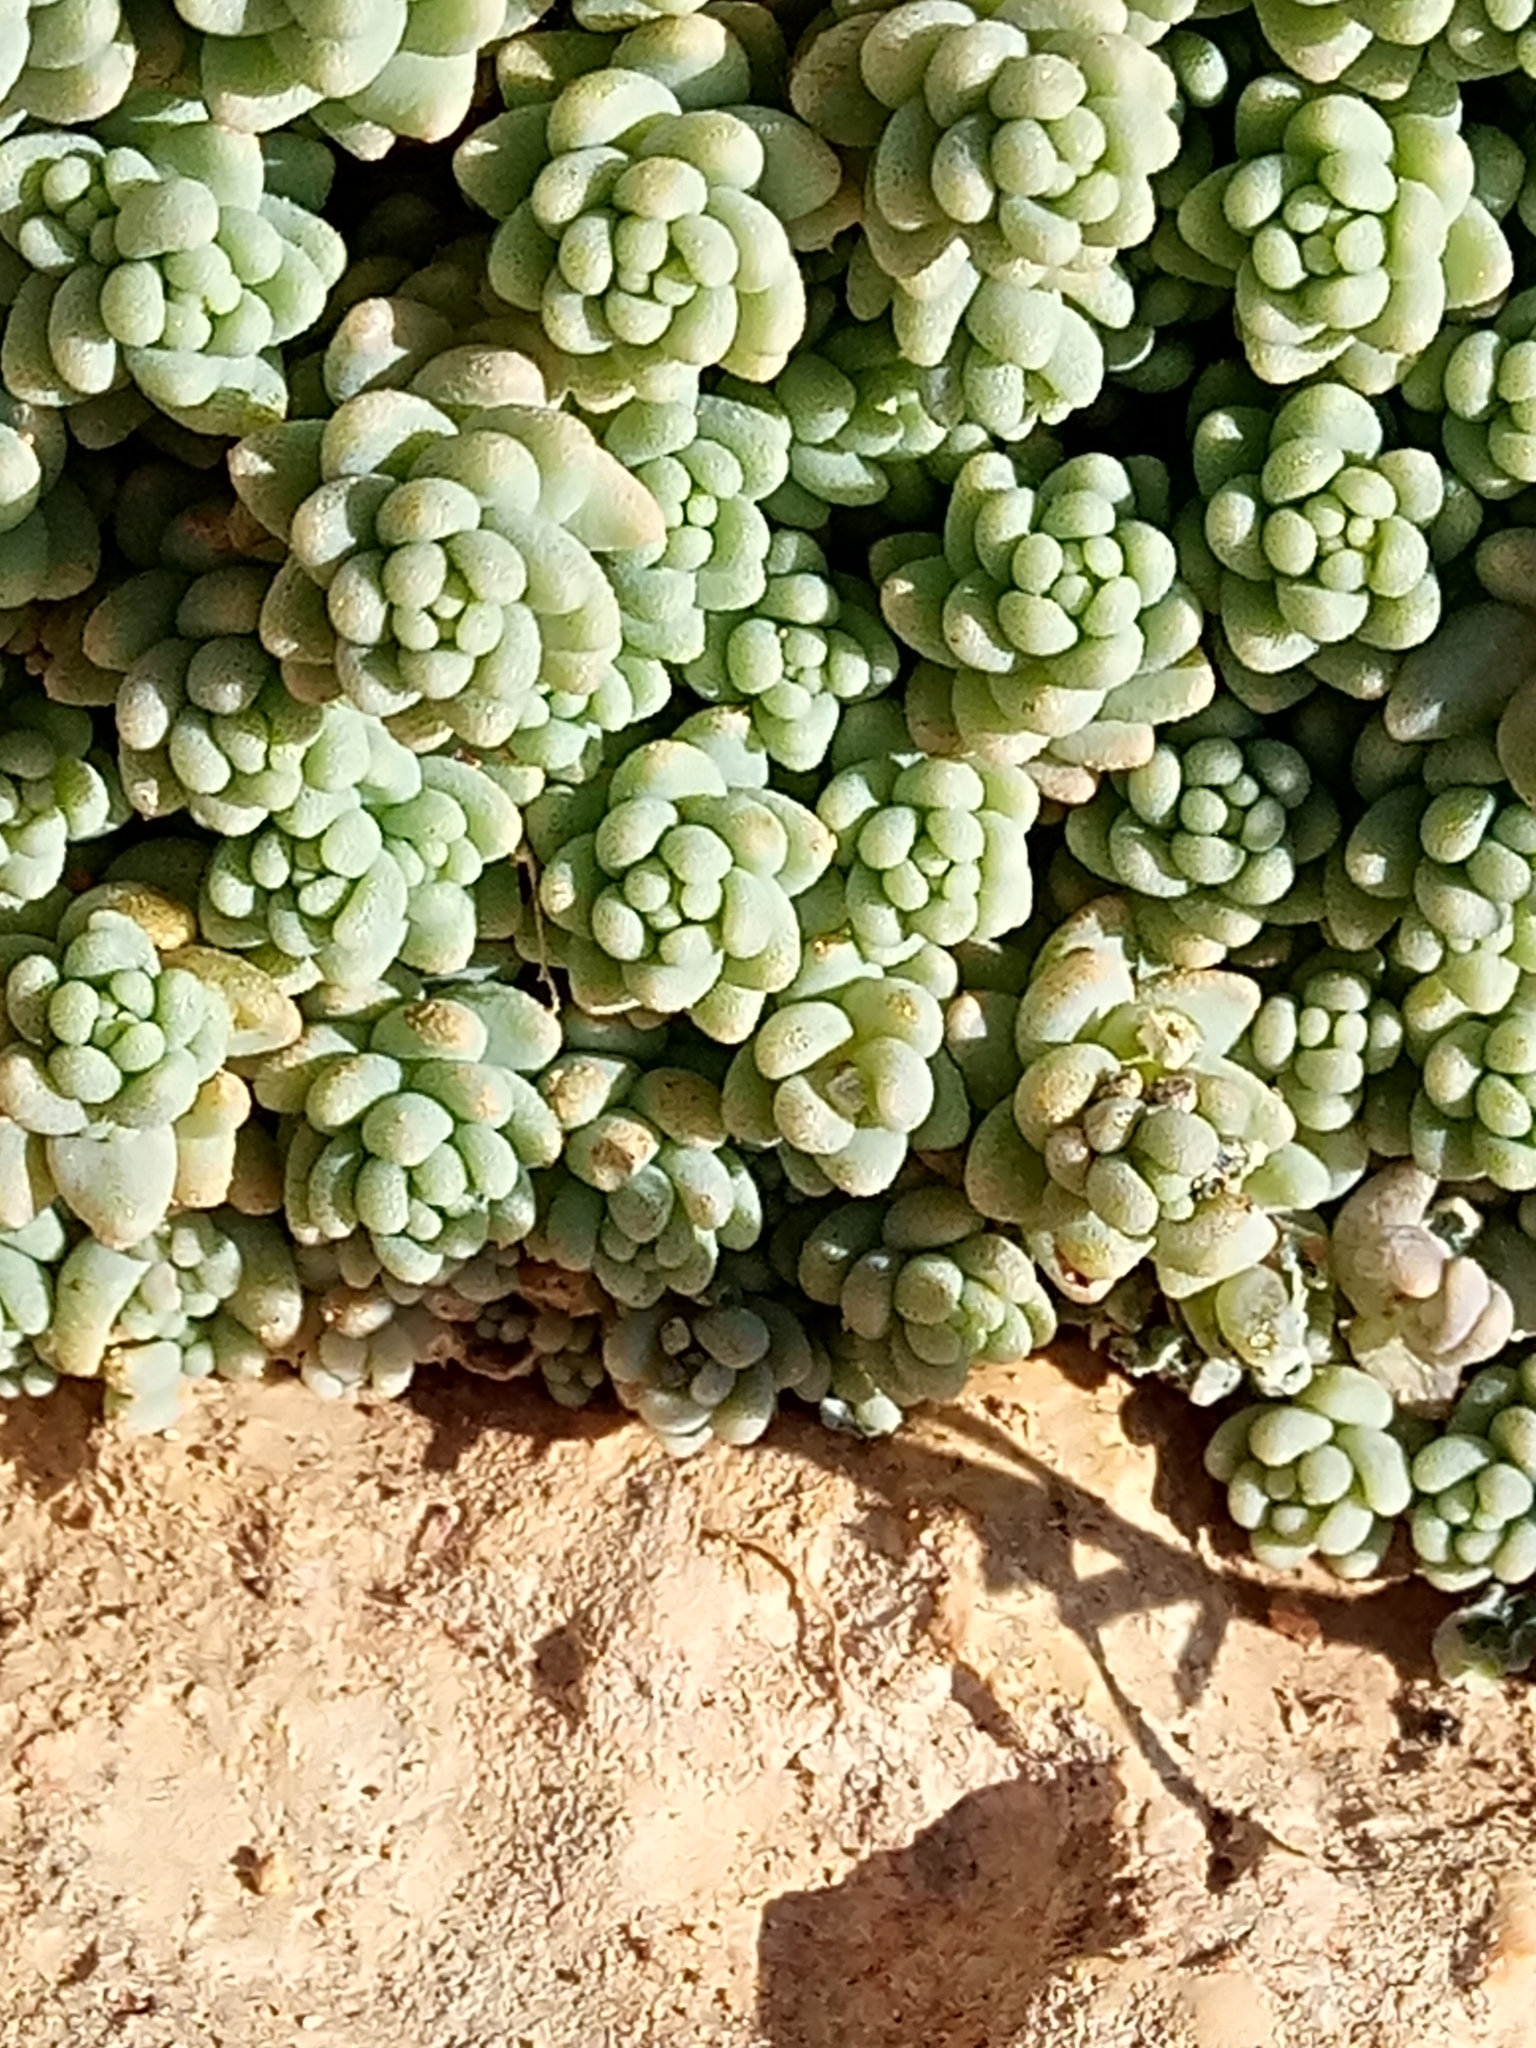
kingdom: Plantae
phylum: Tracheophyta
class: Magnoliopsida
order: Saxifragales
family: Crassulaceae
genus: Sedum
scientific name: Sedum dasyphyllum
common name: Thick-leaf stonecrop
